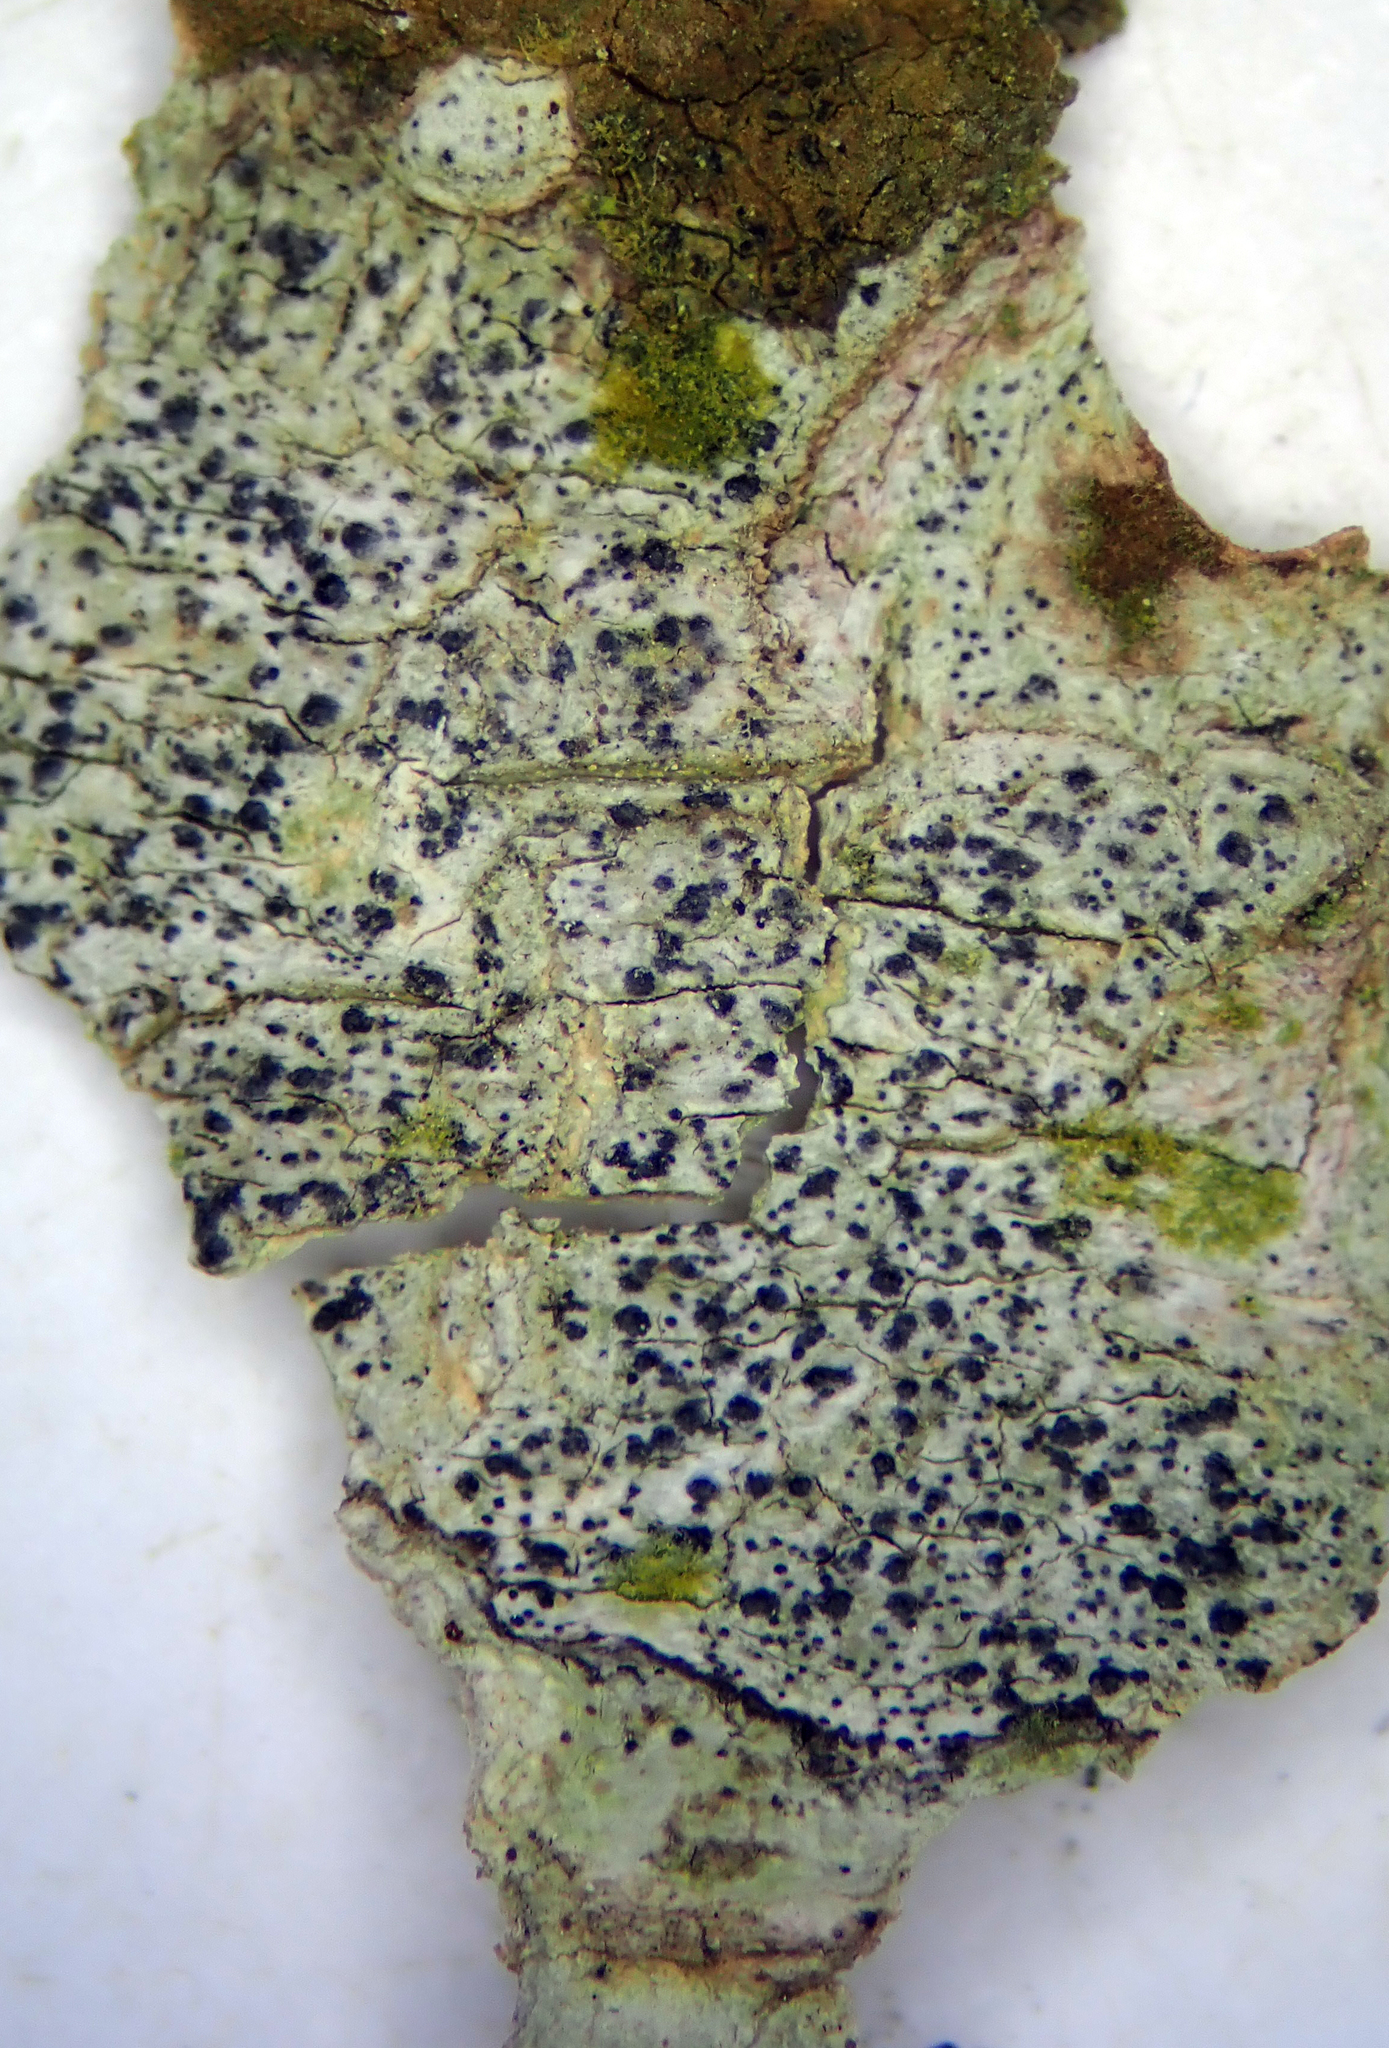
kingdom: Fungi
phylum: Ascomycota
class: Dothideomycetes
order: Pleosporales
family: Arthopyreniaceae
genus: Arthopyrenia
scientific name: Arthopyrenia
